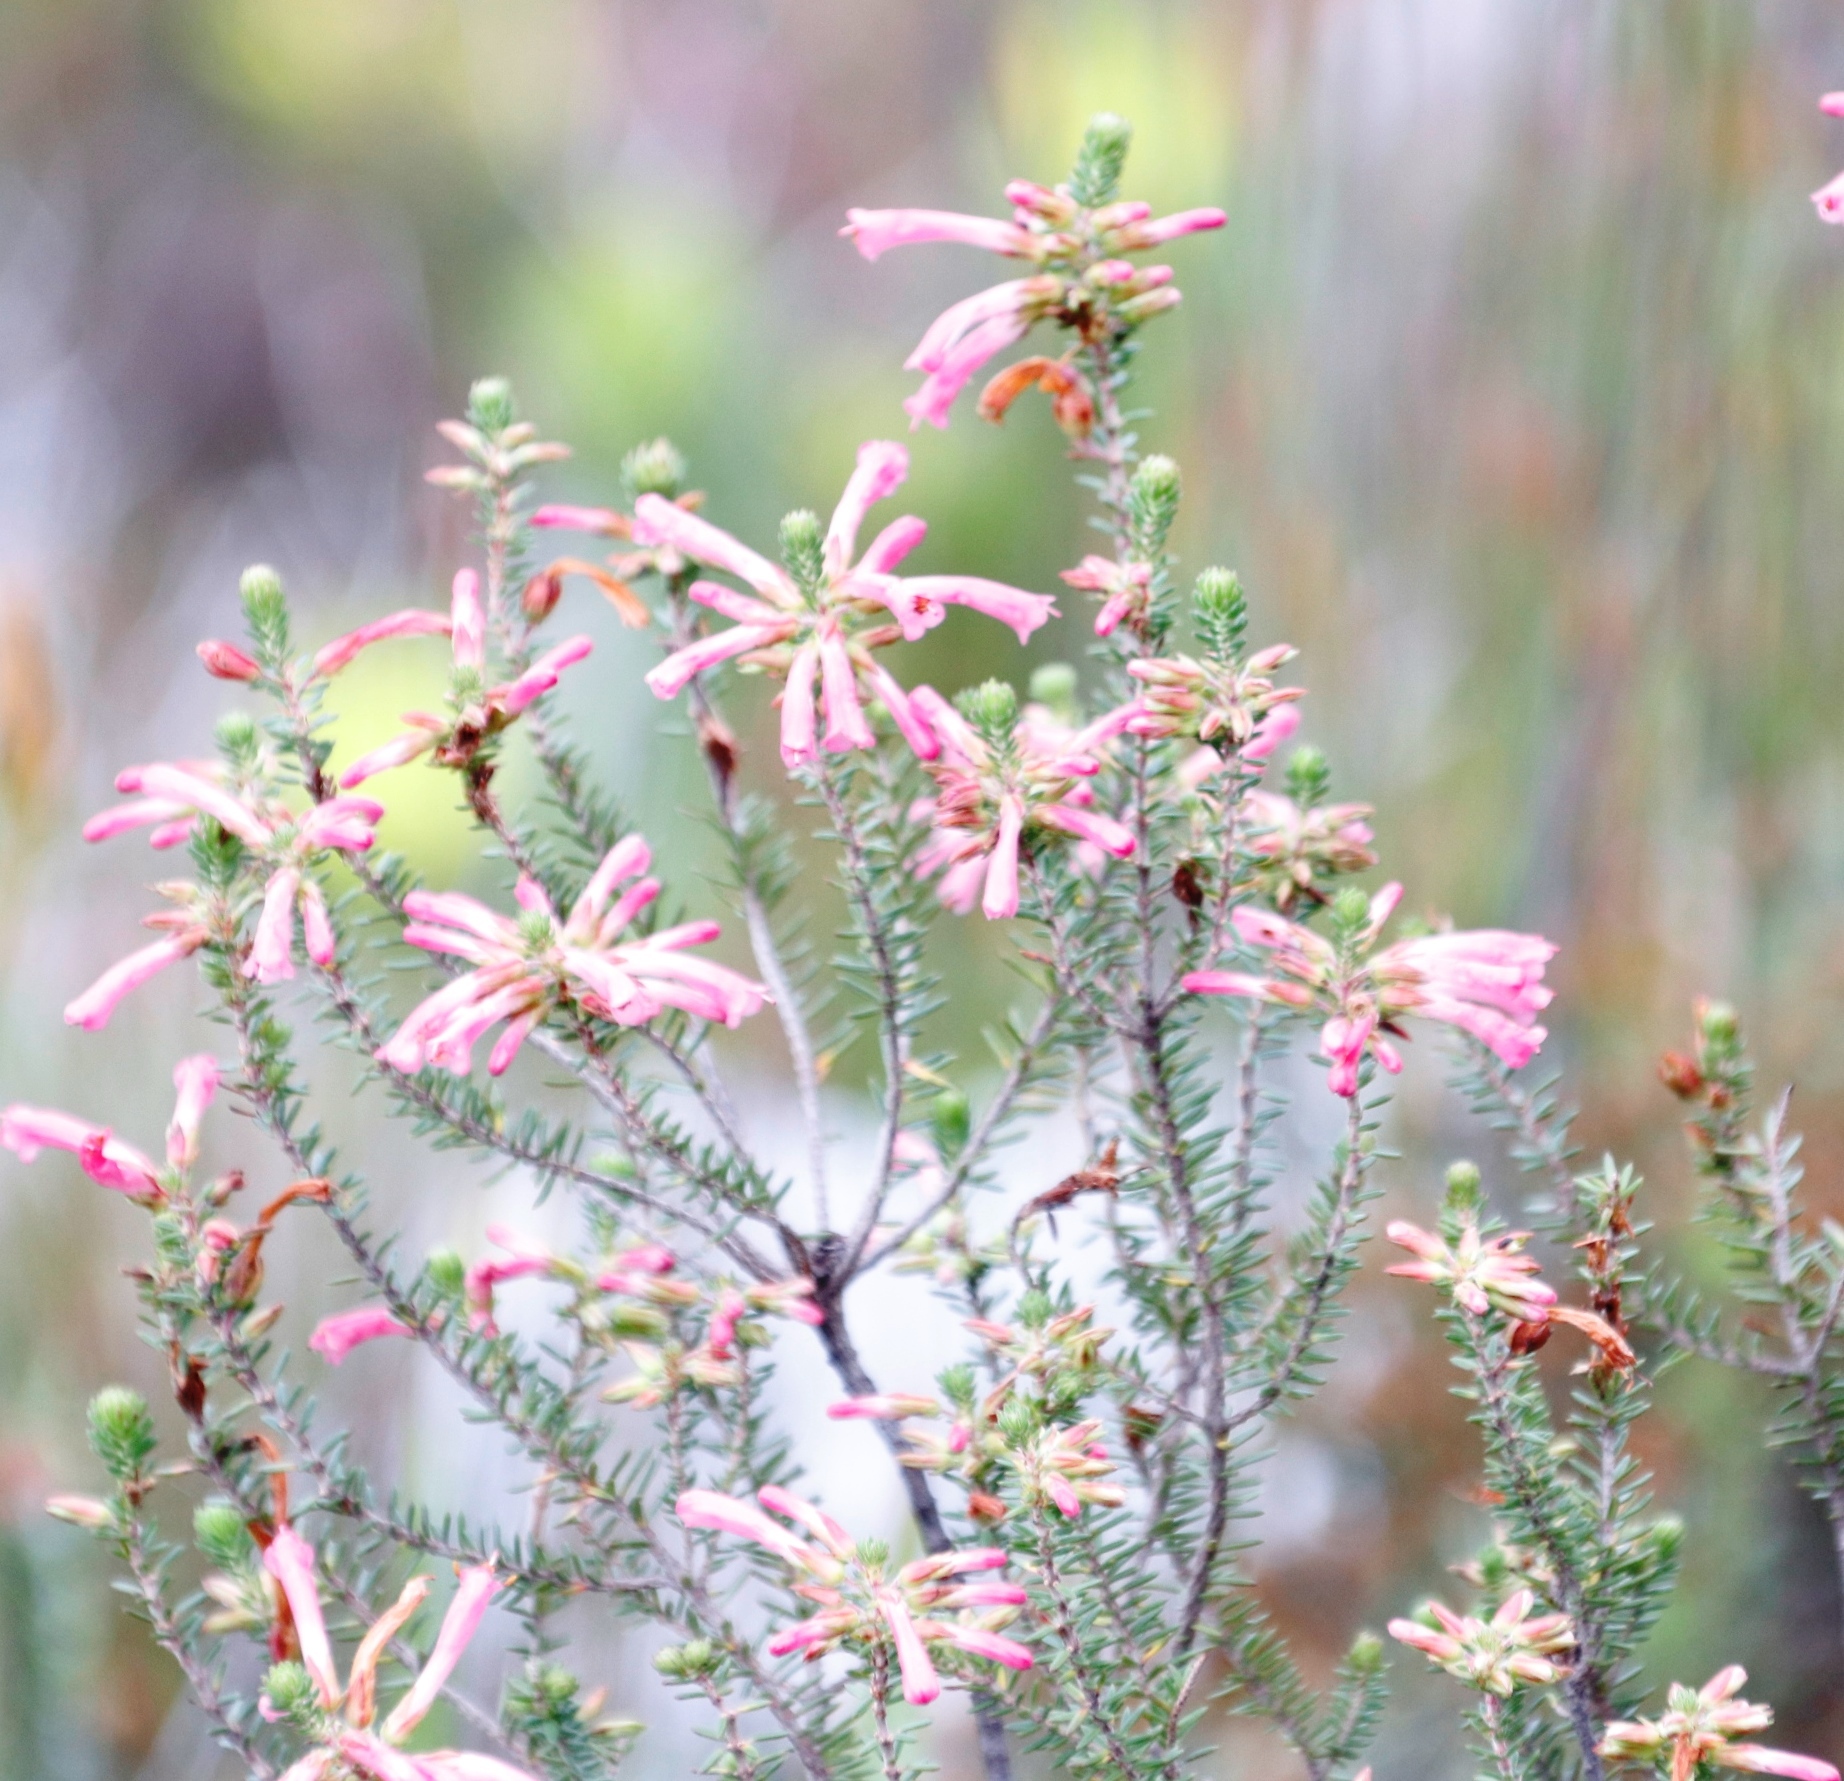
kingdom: Plantae
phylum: Tracheophyta
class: Magnoliopsida
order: Ericales
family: Ericaceae
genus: Erica
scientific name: Erica abietina
